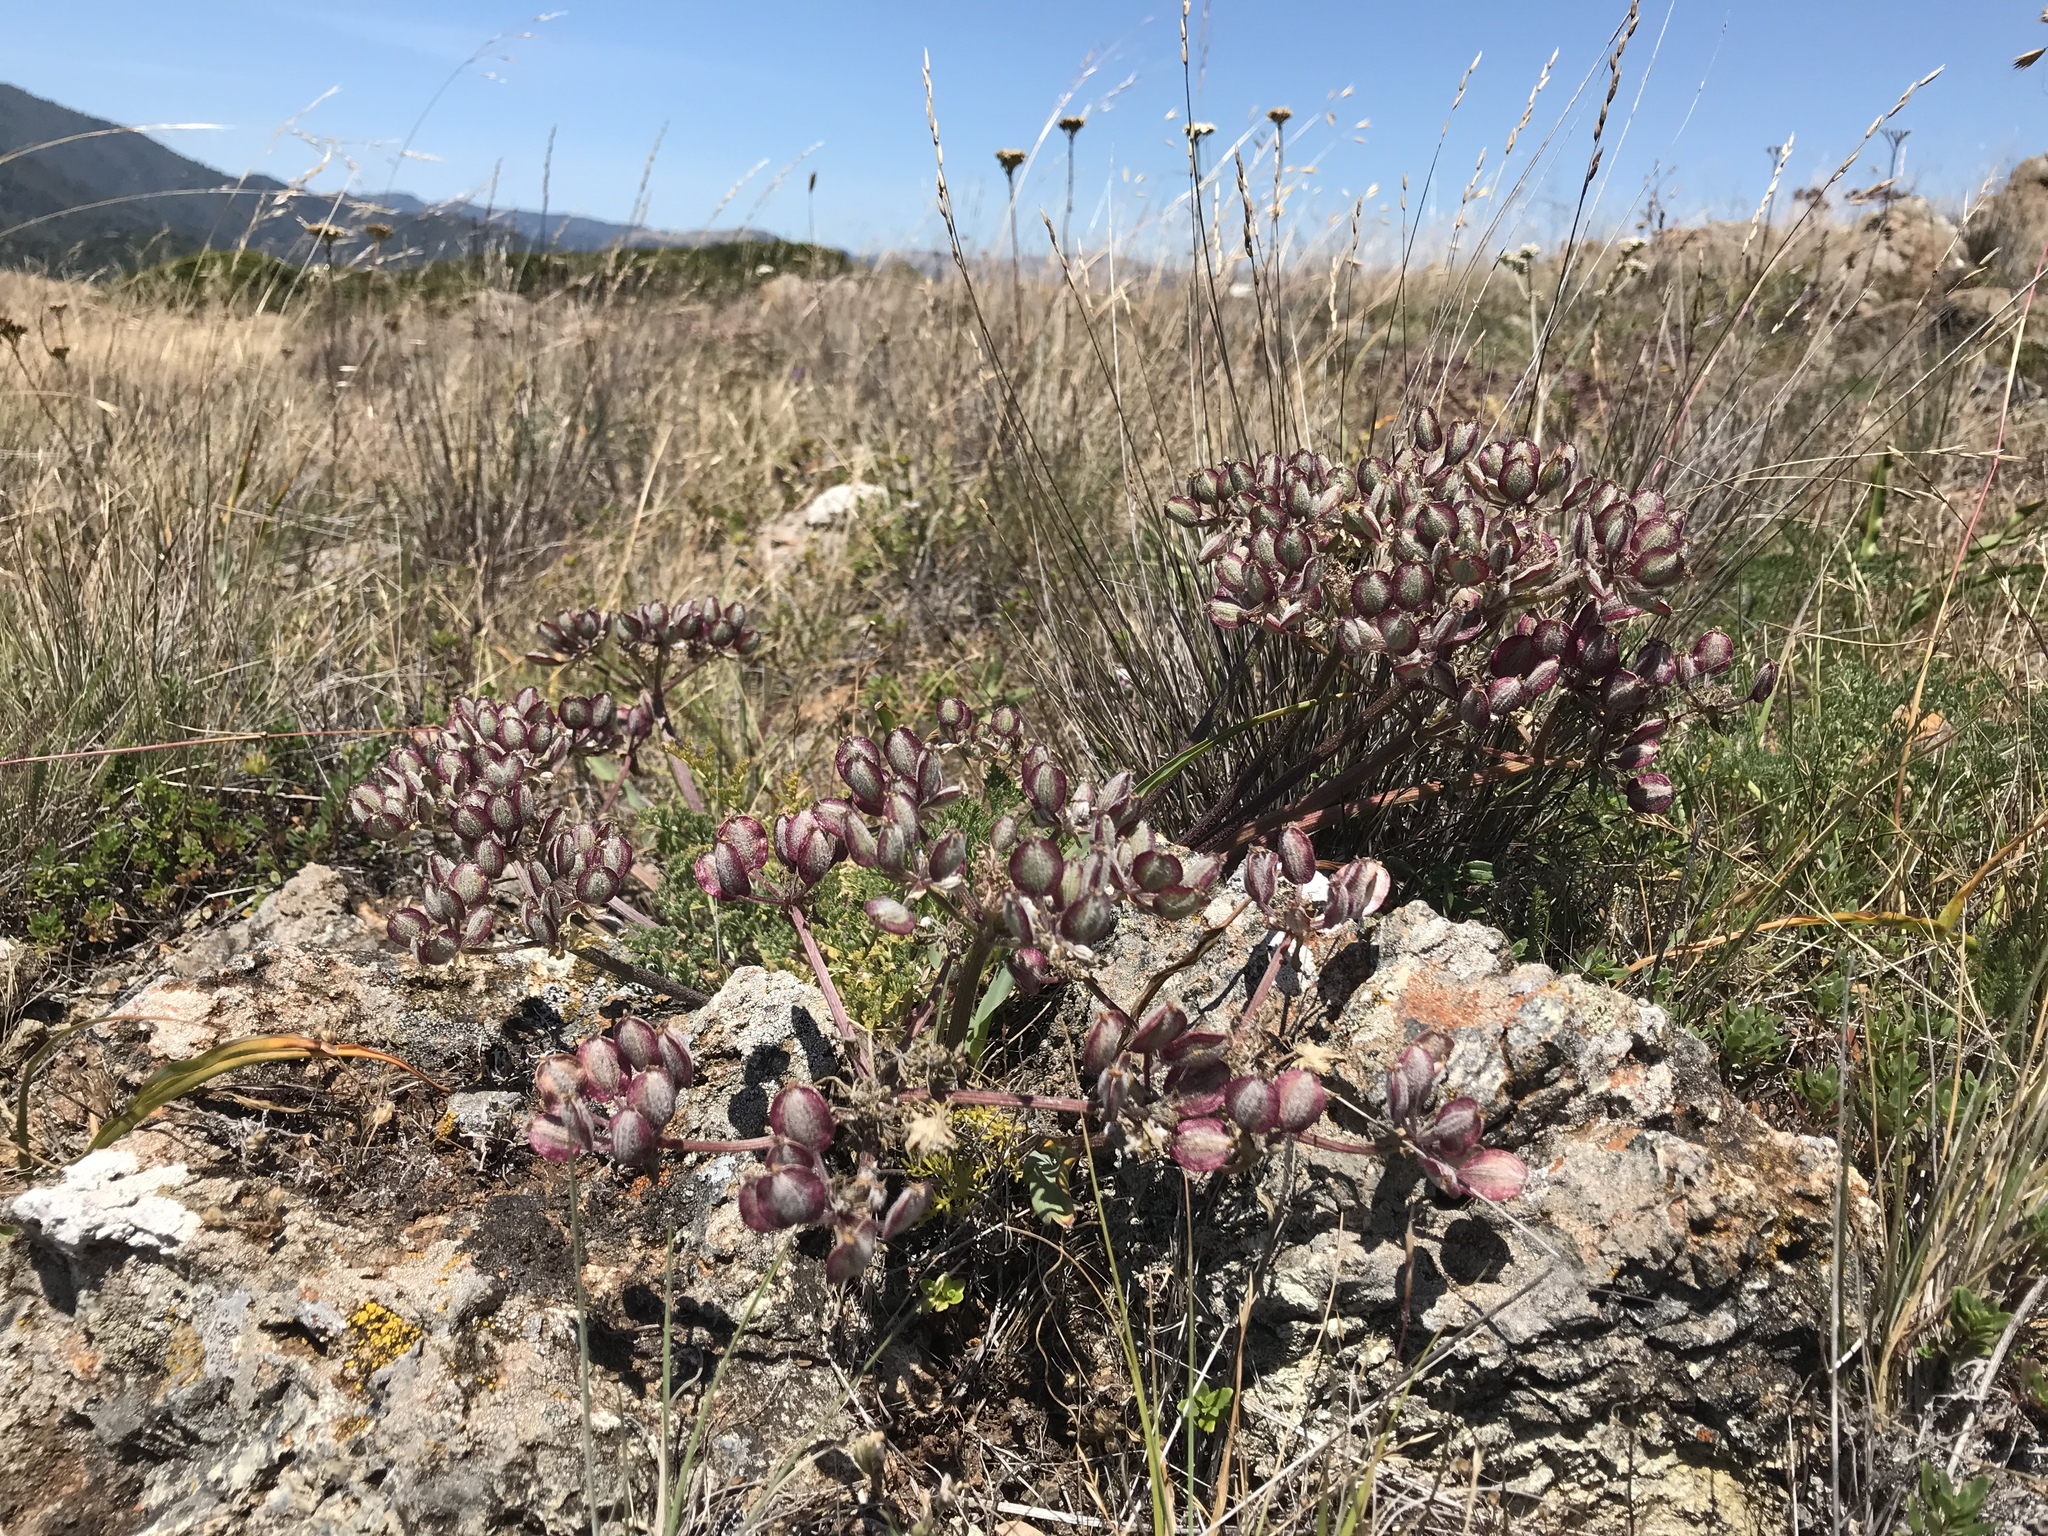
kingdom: Plantae
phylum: Tracheophyta
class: Magnoliopsida
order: Apiales
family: Apiaceae
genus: Lomatium
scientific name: Lomatium dasycarpum
